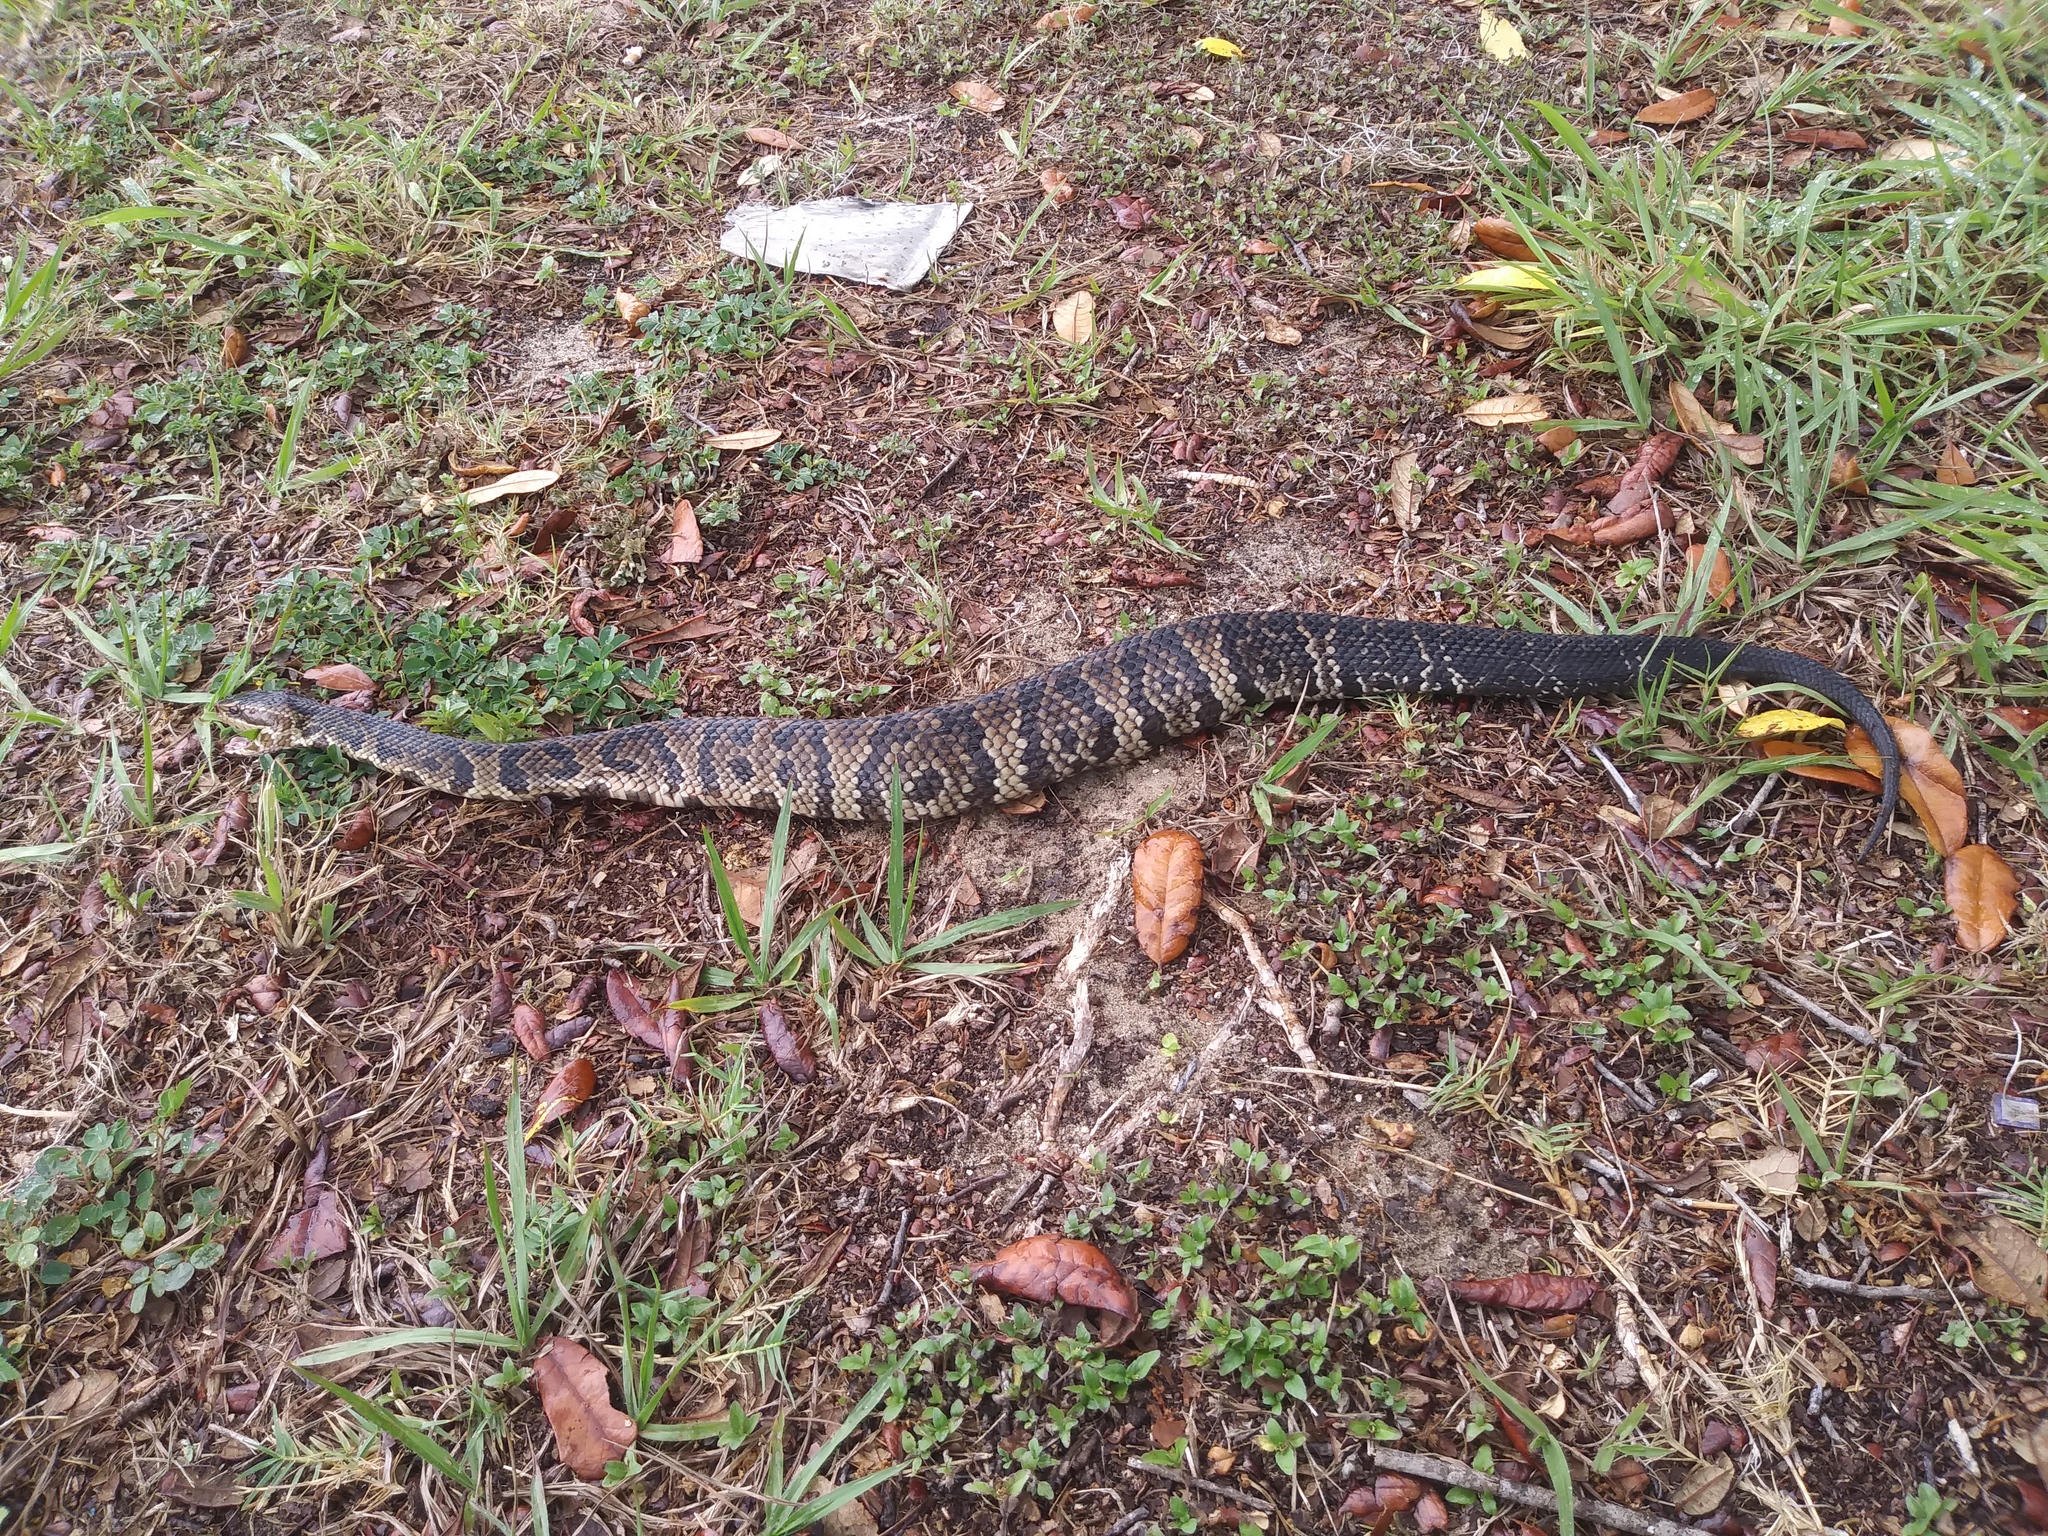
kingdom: Animalia
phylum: Chordata
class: Squamata
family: Viperidae
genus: Agkistrodon
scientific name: Agkistrodon conanti
